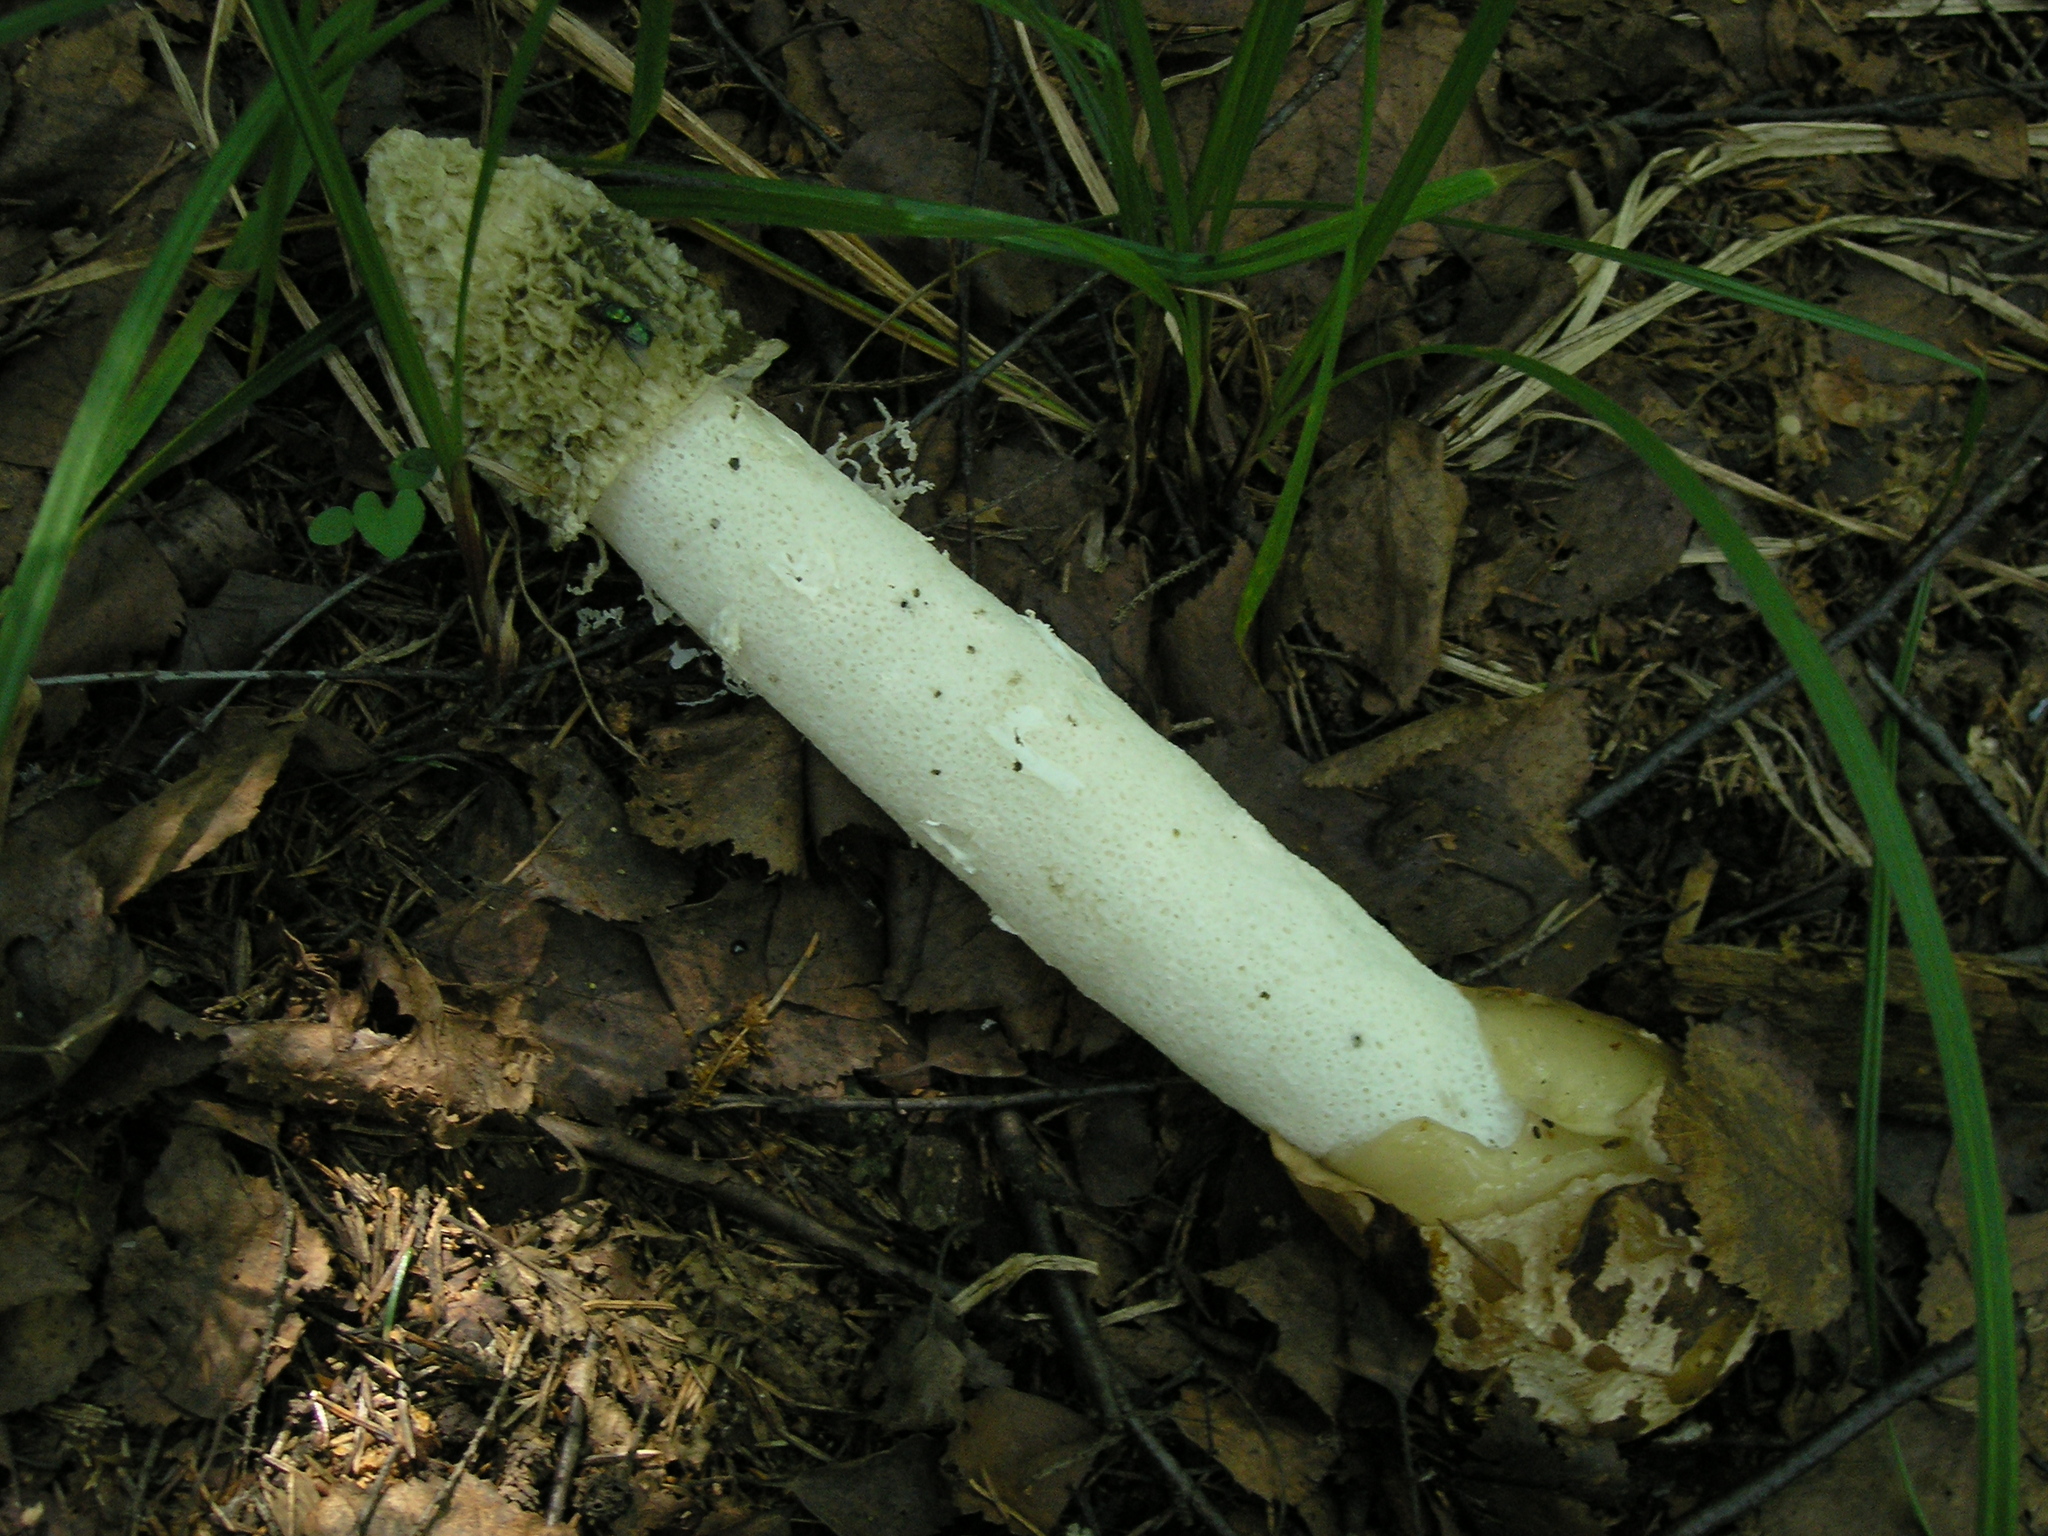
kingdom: Fungi
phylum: Basidiomycota
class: Agaricomycetes
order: Phallales
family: Phallaceae
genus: Phallus
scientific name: Phallus impudicus
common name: Common stinkhorn
